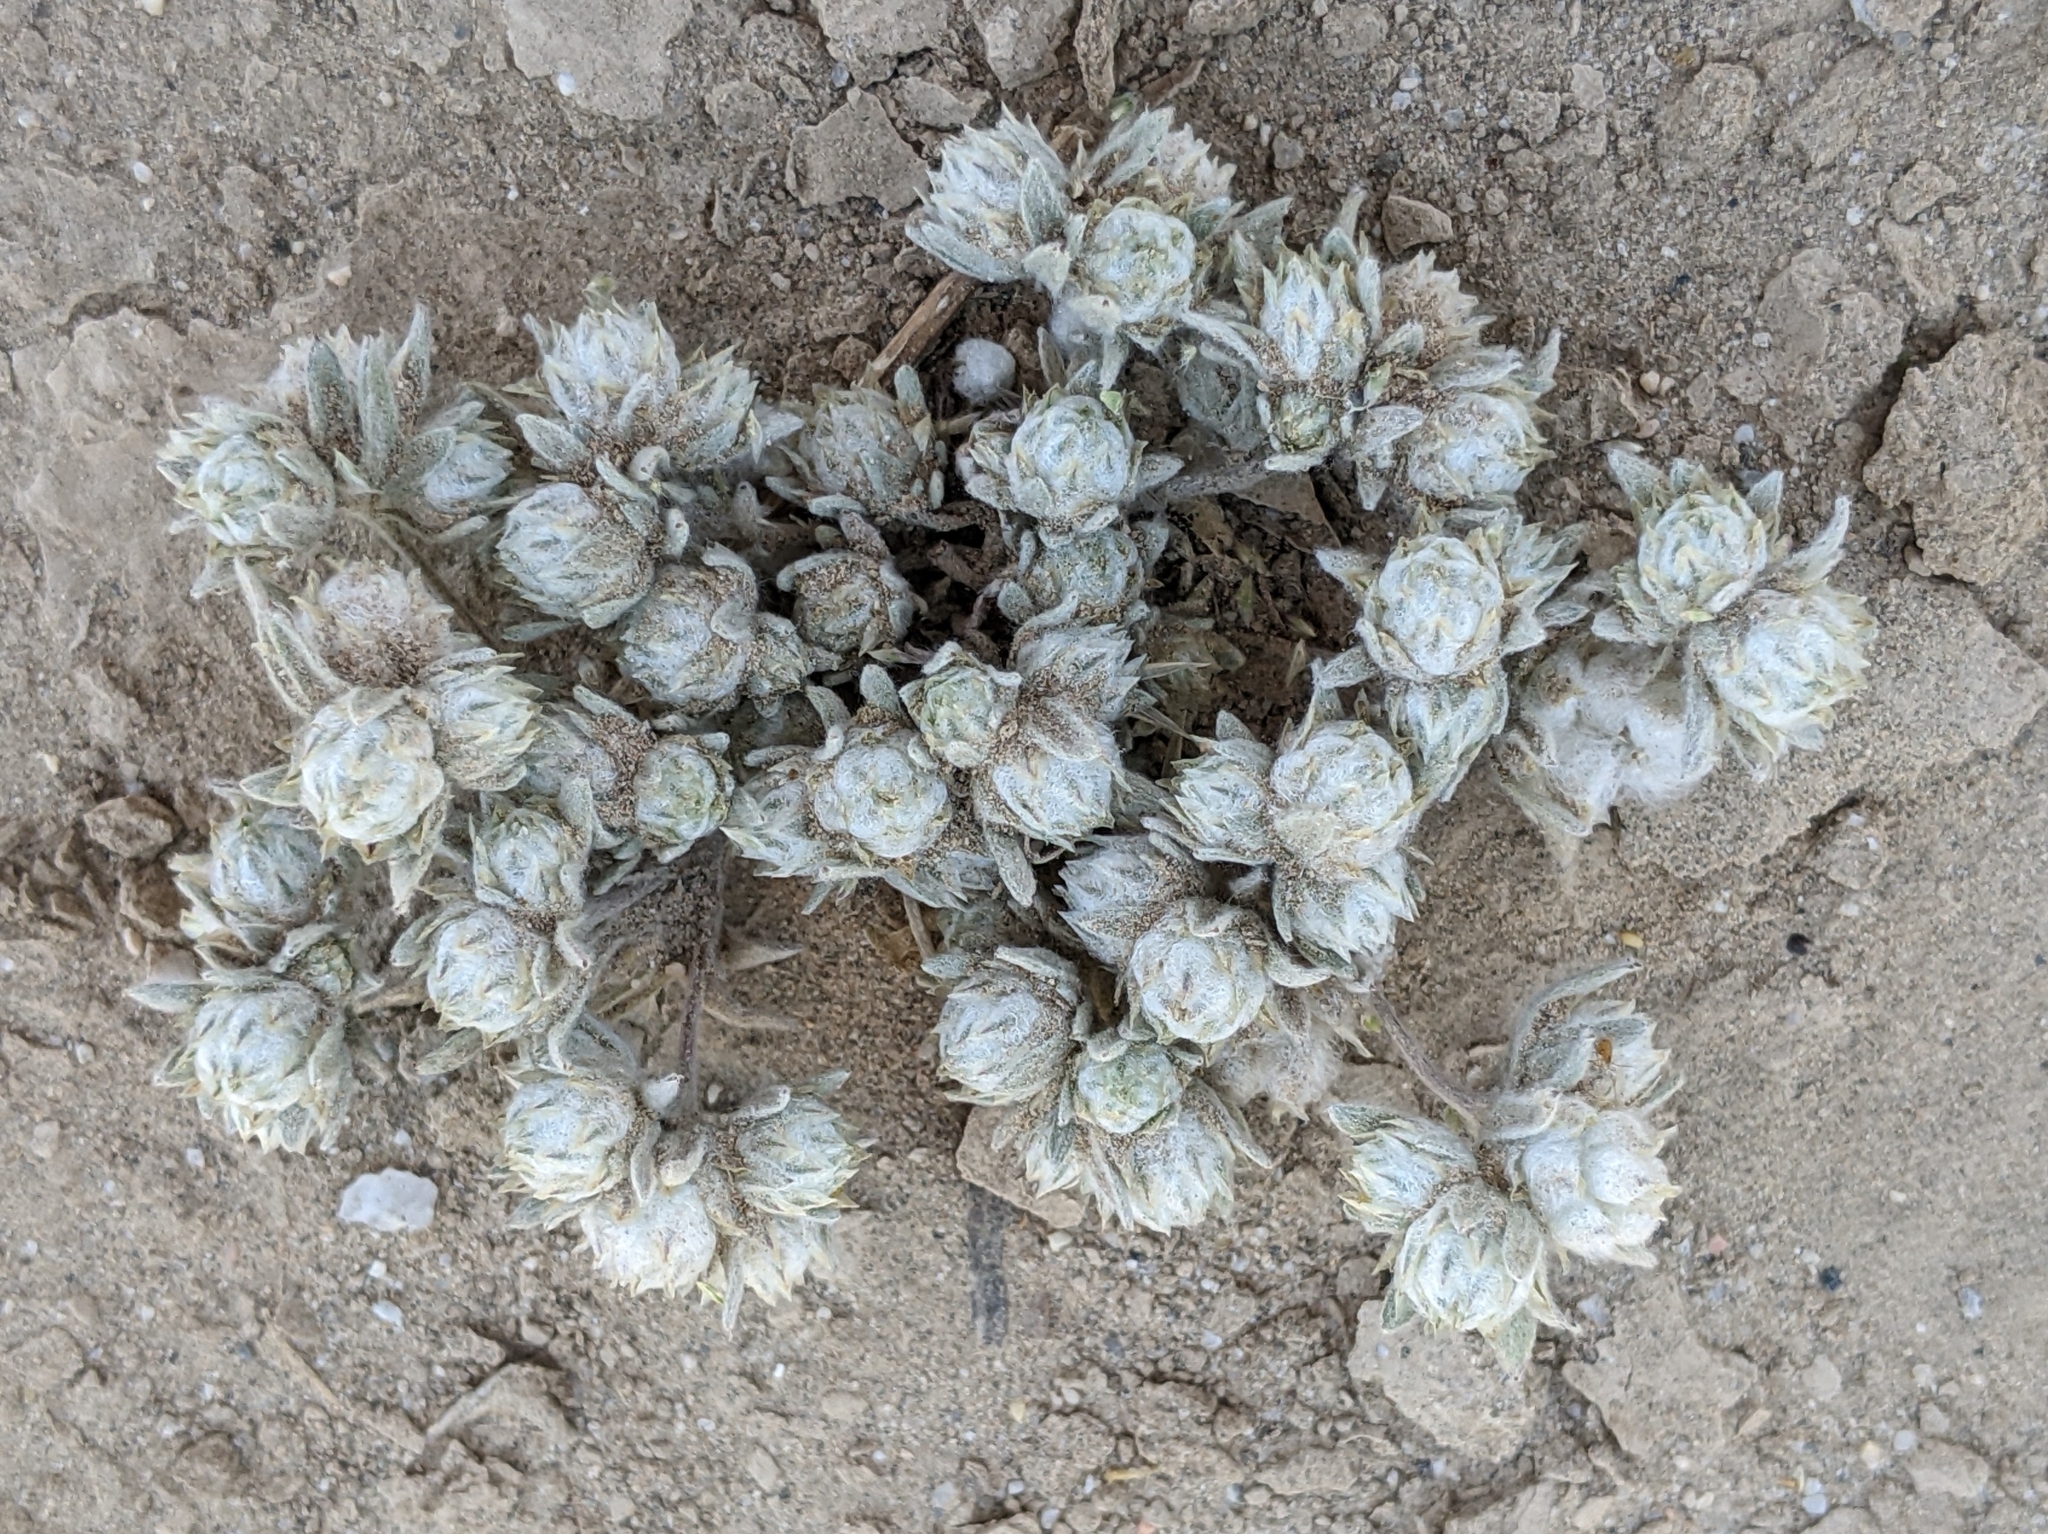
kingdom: Plantae
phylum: Tracheophyta
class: Magnoliopsida
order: Asterales
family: Asteraceae
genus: Stylocline
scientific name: Stylocline micropoides
